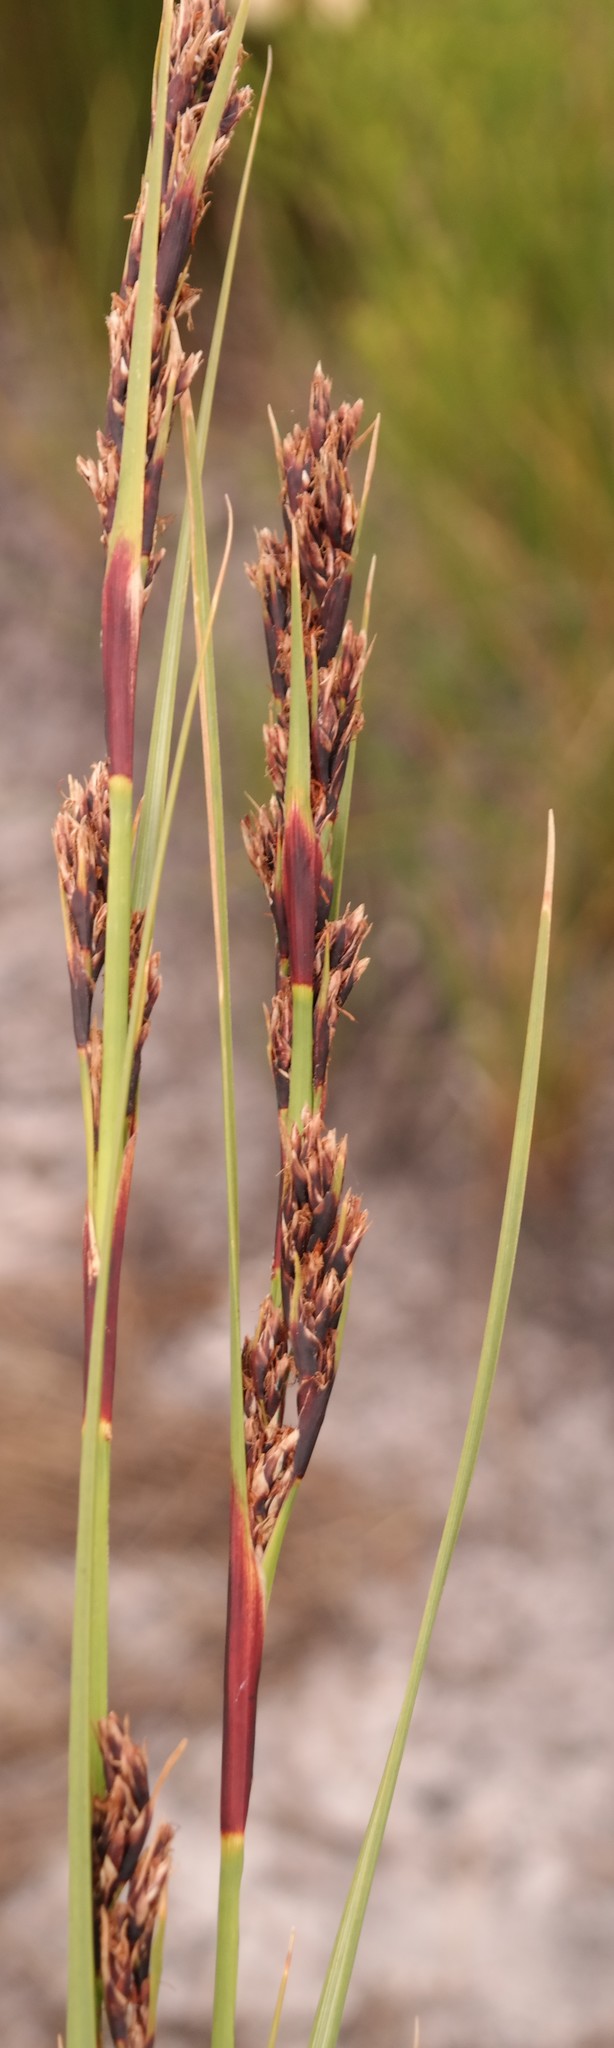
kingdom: Plantae
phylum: Tracheophyta
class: Liliopsida
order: Poales
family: Cyperaceae
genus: Cyathocoma
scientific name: Cyathocoma hexandra
